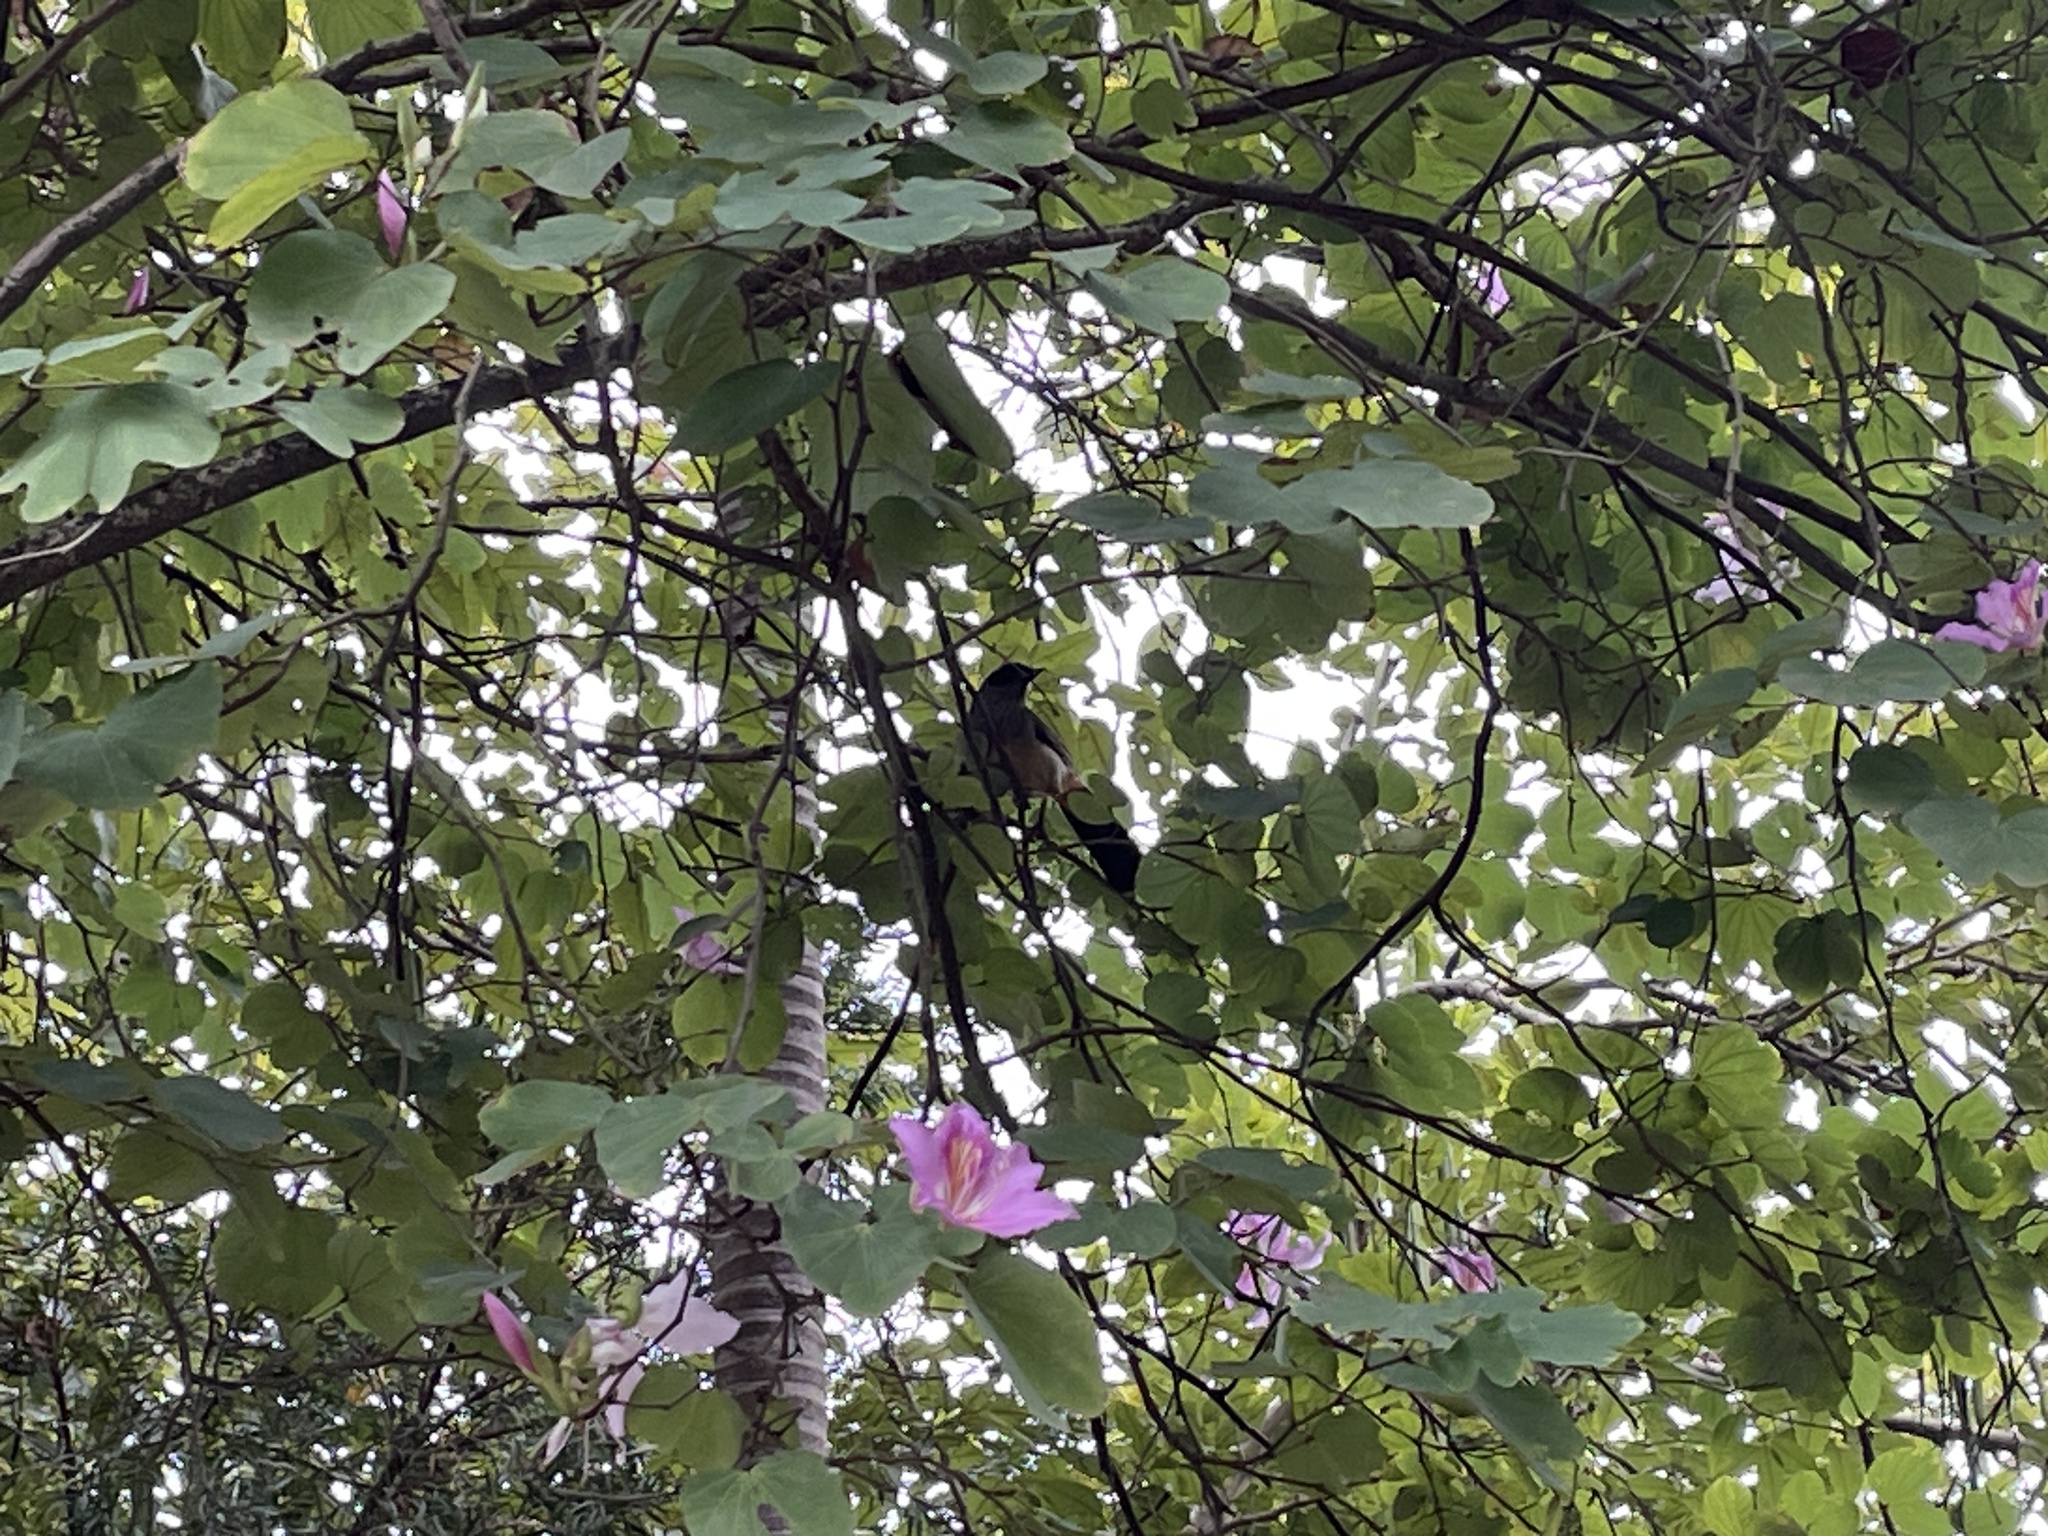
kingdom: Animalia
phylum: Chordata
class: Aves
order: Passeriformes
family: Leiothrichidae
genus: Garrulax
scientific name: Garrulax perspicillatus
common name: Masked laughingthrush
